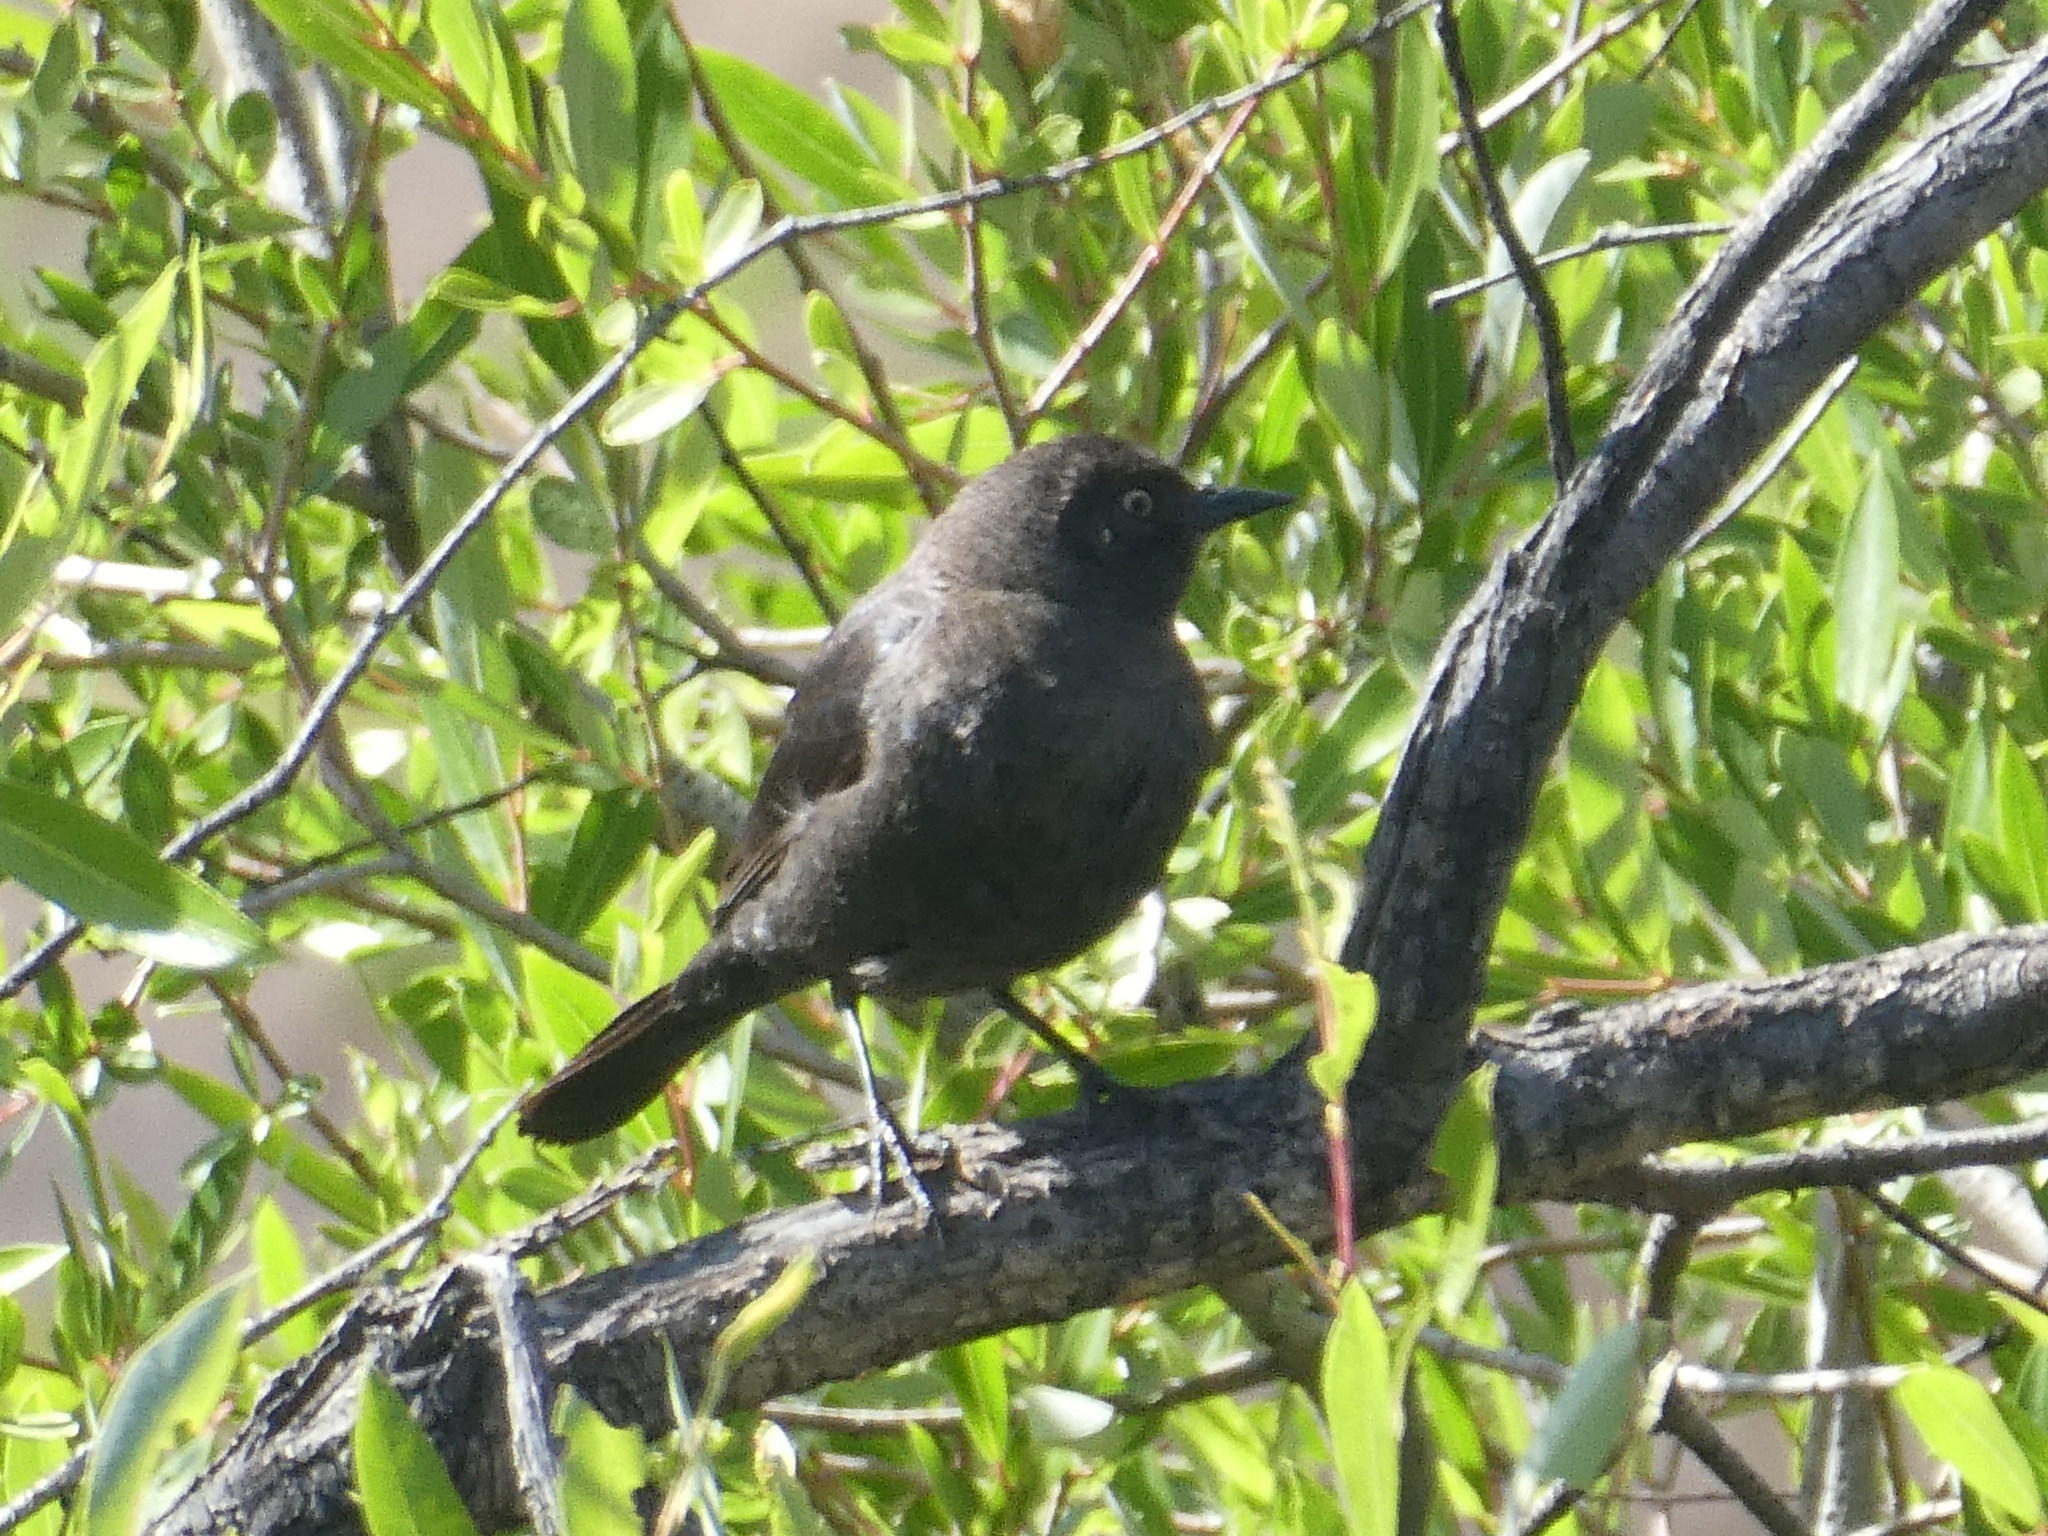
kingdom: Animalia
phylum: Chordata
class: Aves
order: Passeriformes
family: Icteridae
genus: Euphagus
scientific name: Euphagus cyanocephalus
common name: Brewer's blackbird
